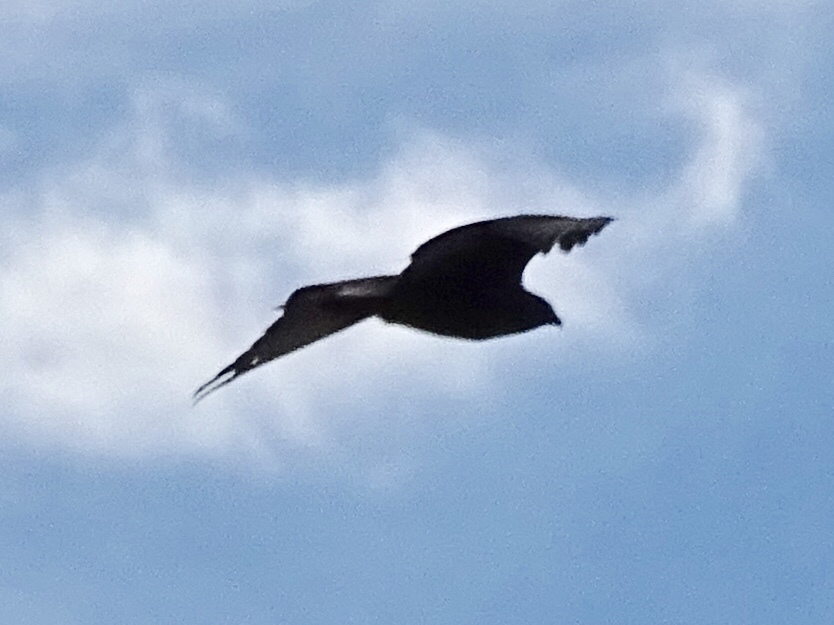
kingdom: Animalia
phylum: Chordata
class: Aves
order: Accipitriformes
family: Accipitridae
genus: Buteo
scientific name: Buteo jamaicensis
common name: Red-tailed hawk
